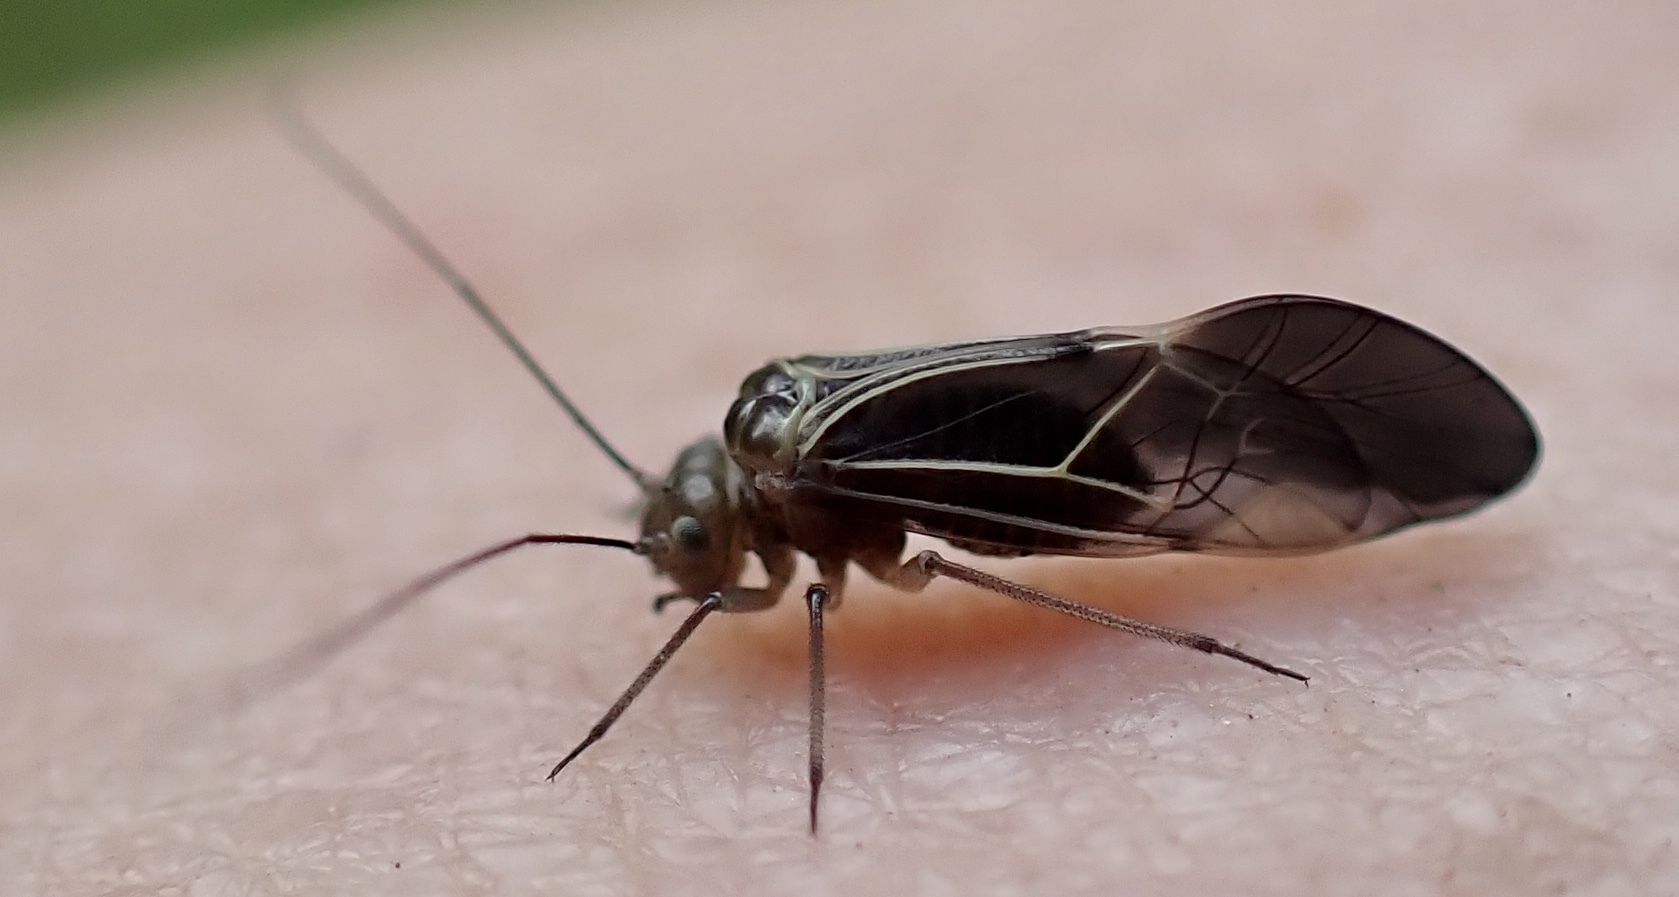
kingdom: Animalia
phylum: Arthropoda
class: Insecta
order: Psocodea
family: Psocidae
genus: Cerastipsocus
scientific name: Cerastipsocus venosus
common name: Tree cattle
